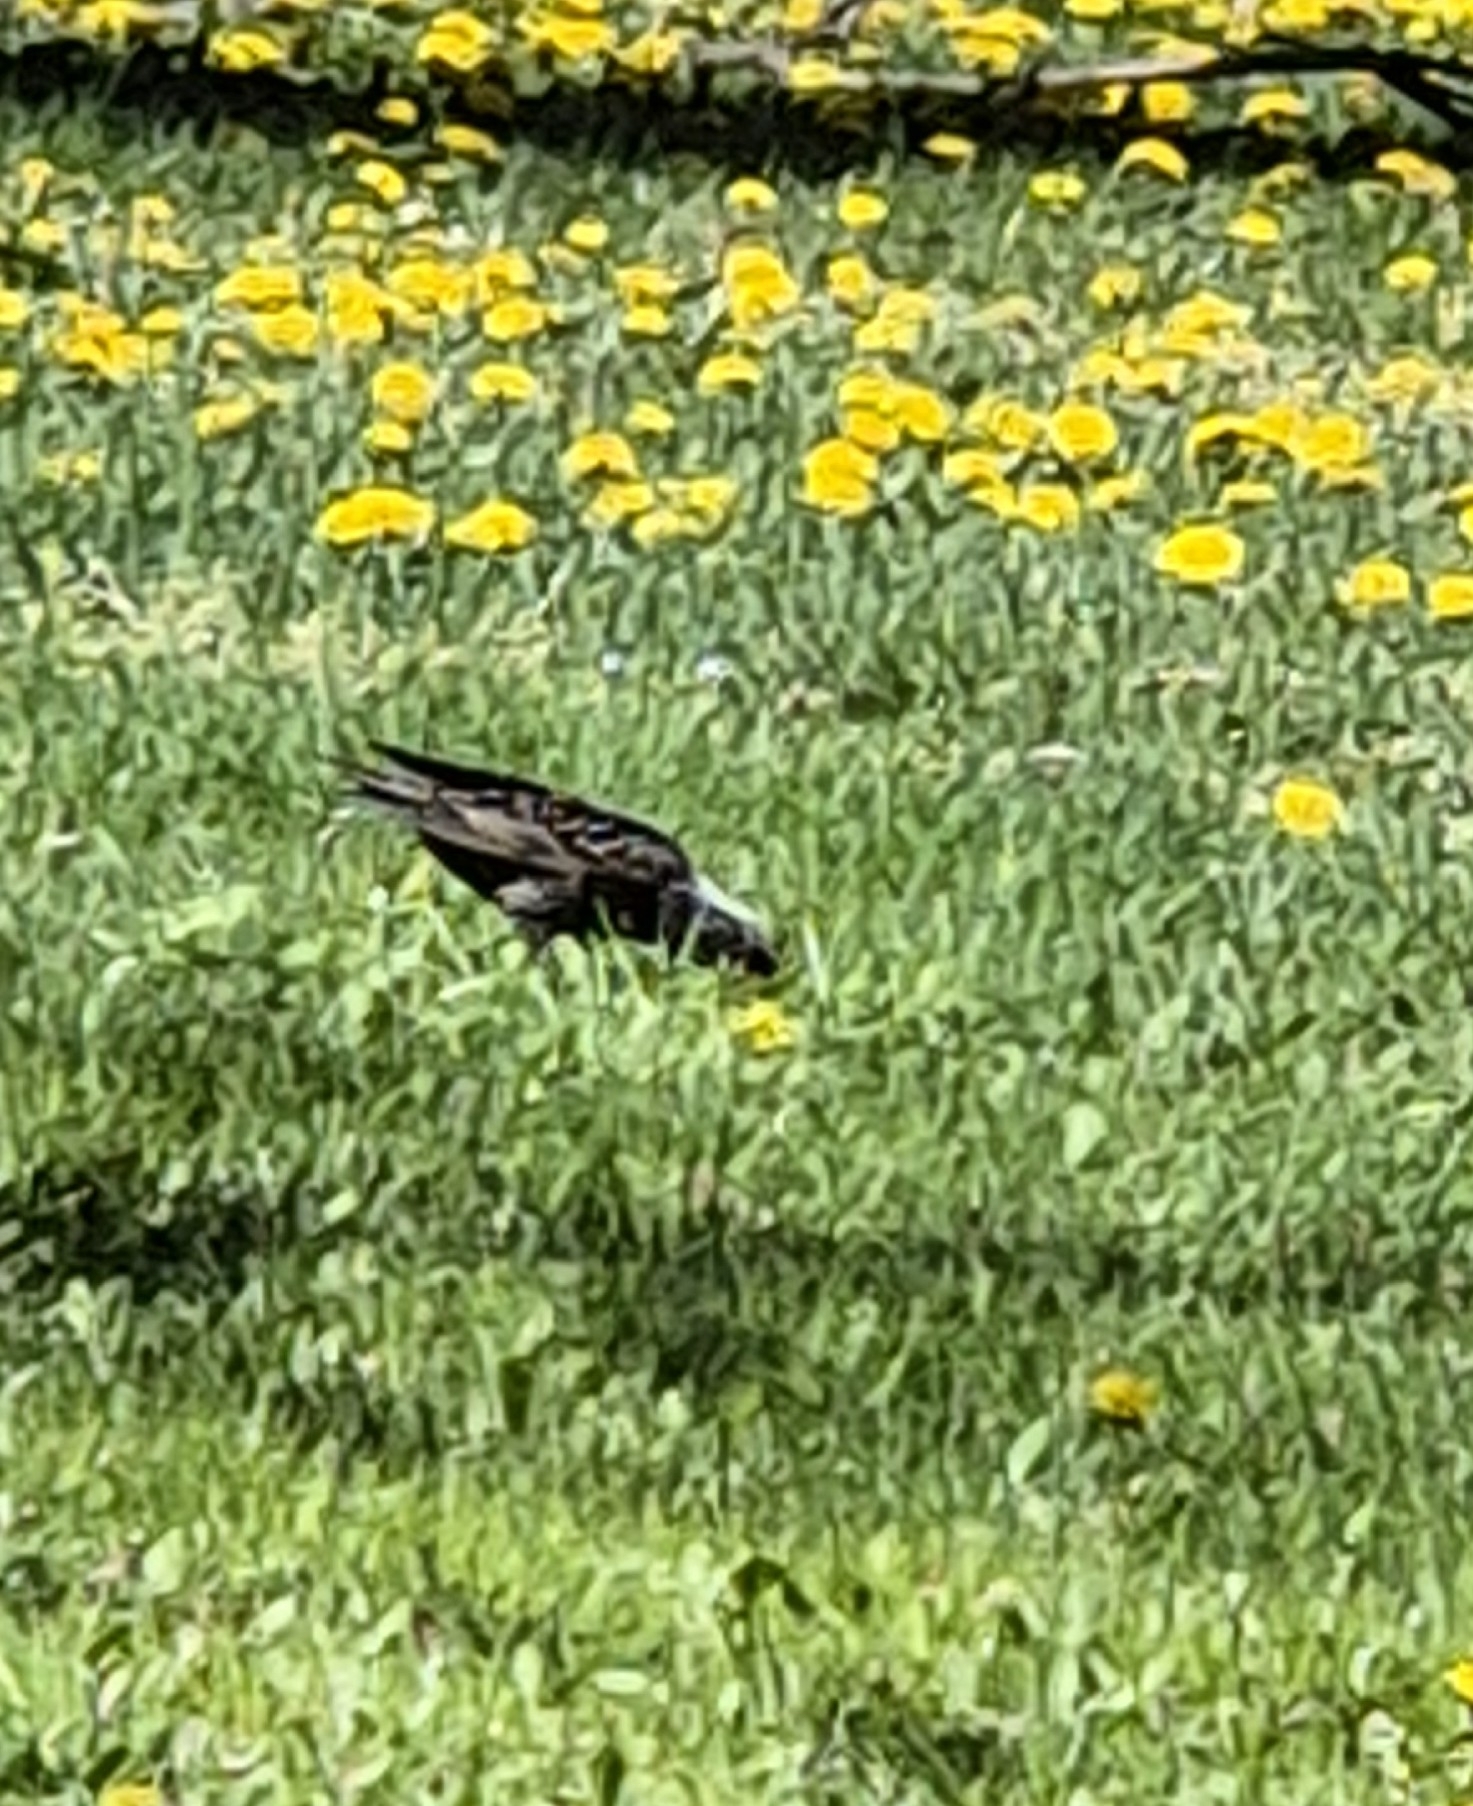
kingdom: Animalia
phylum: Chordata
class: Aves
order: Passeriformes
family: Sturnidae
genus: Sturnus
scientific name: Sturnus vulgaris
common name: Common starling
